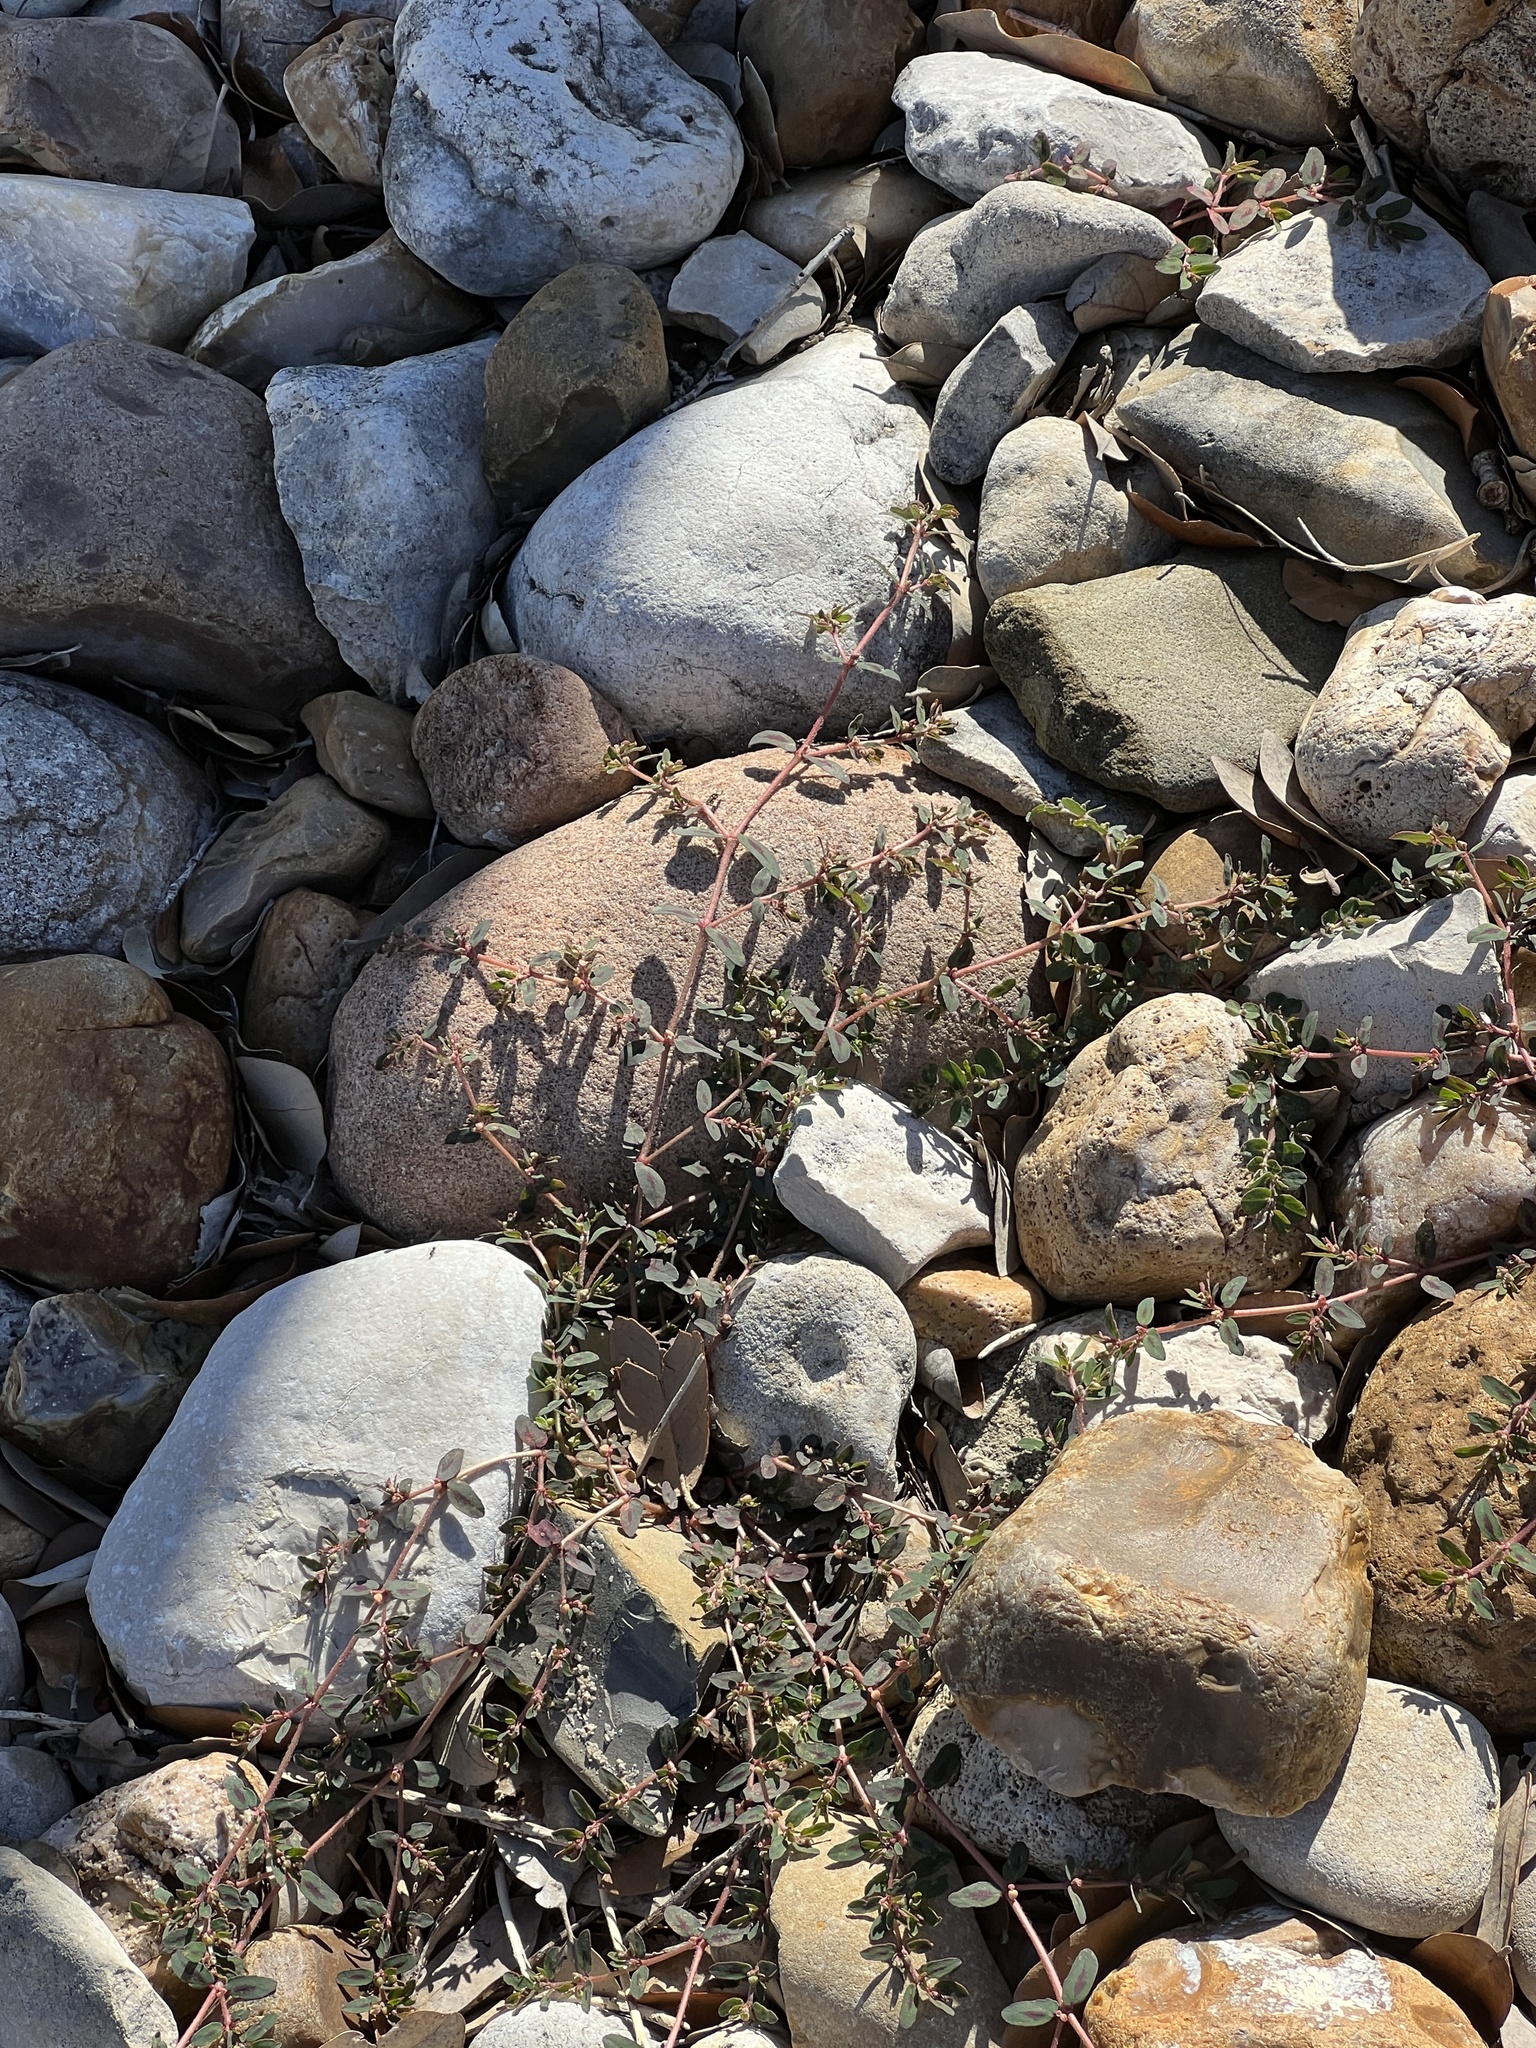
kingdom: Plantae
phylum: Tracheophyta
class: Magnoliopsida
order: Malpighiales
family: Euphorbiaceae
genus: Euphorbia
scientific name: Euphorbia maculata
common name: Spotted spurge
